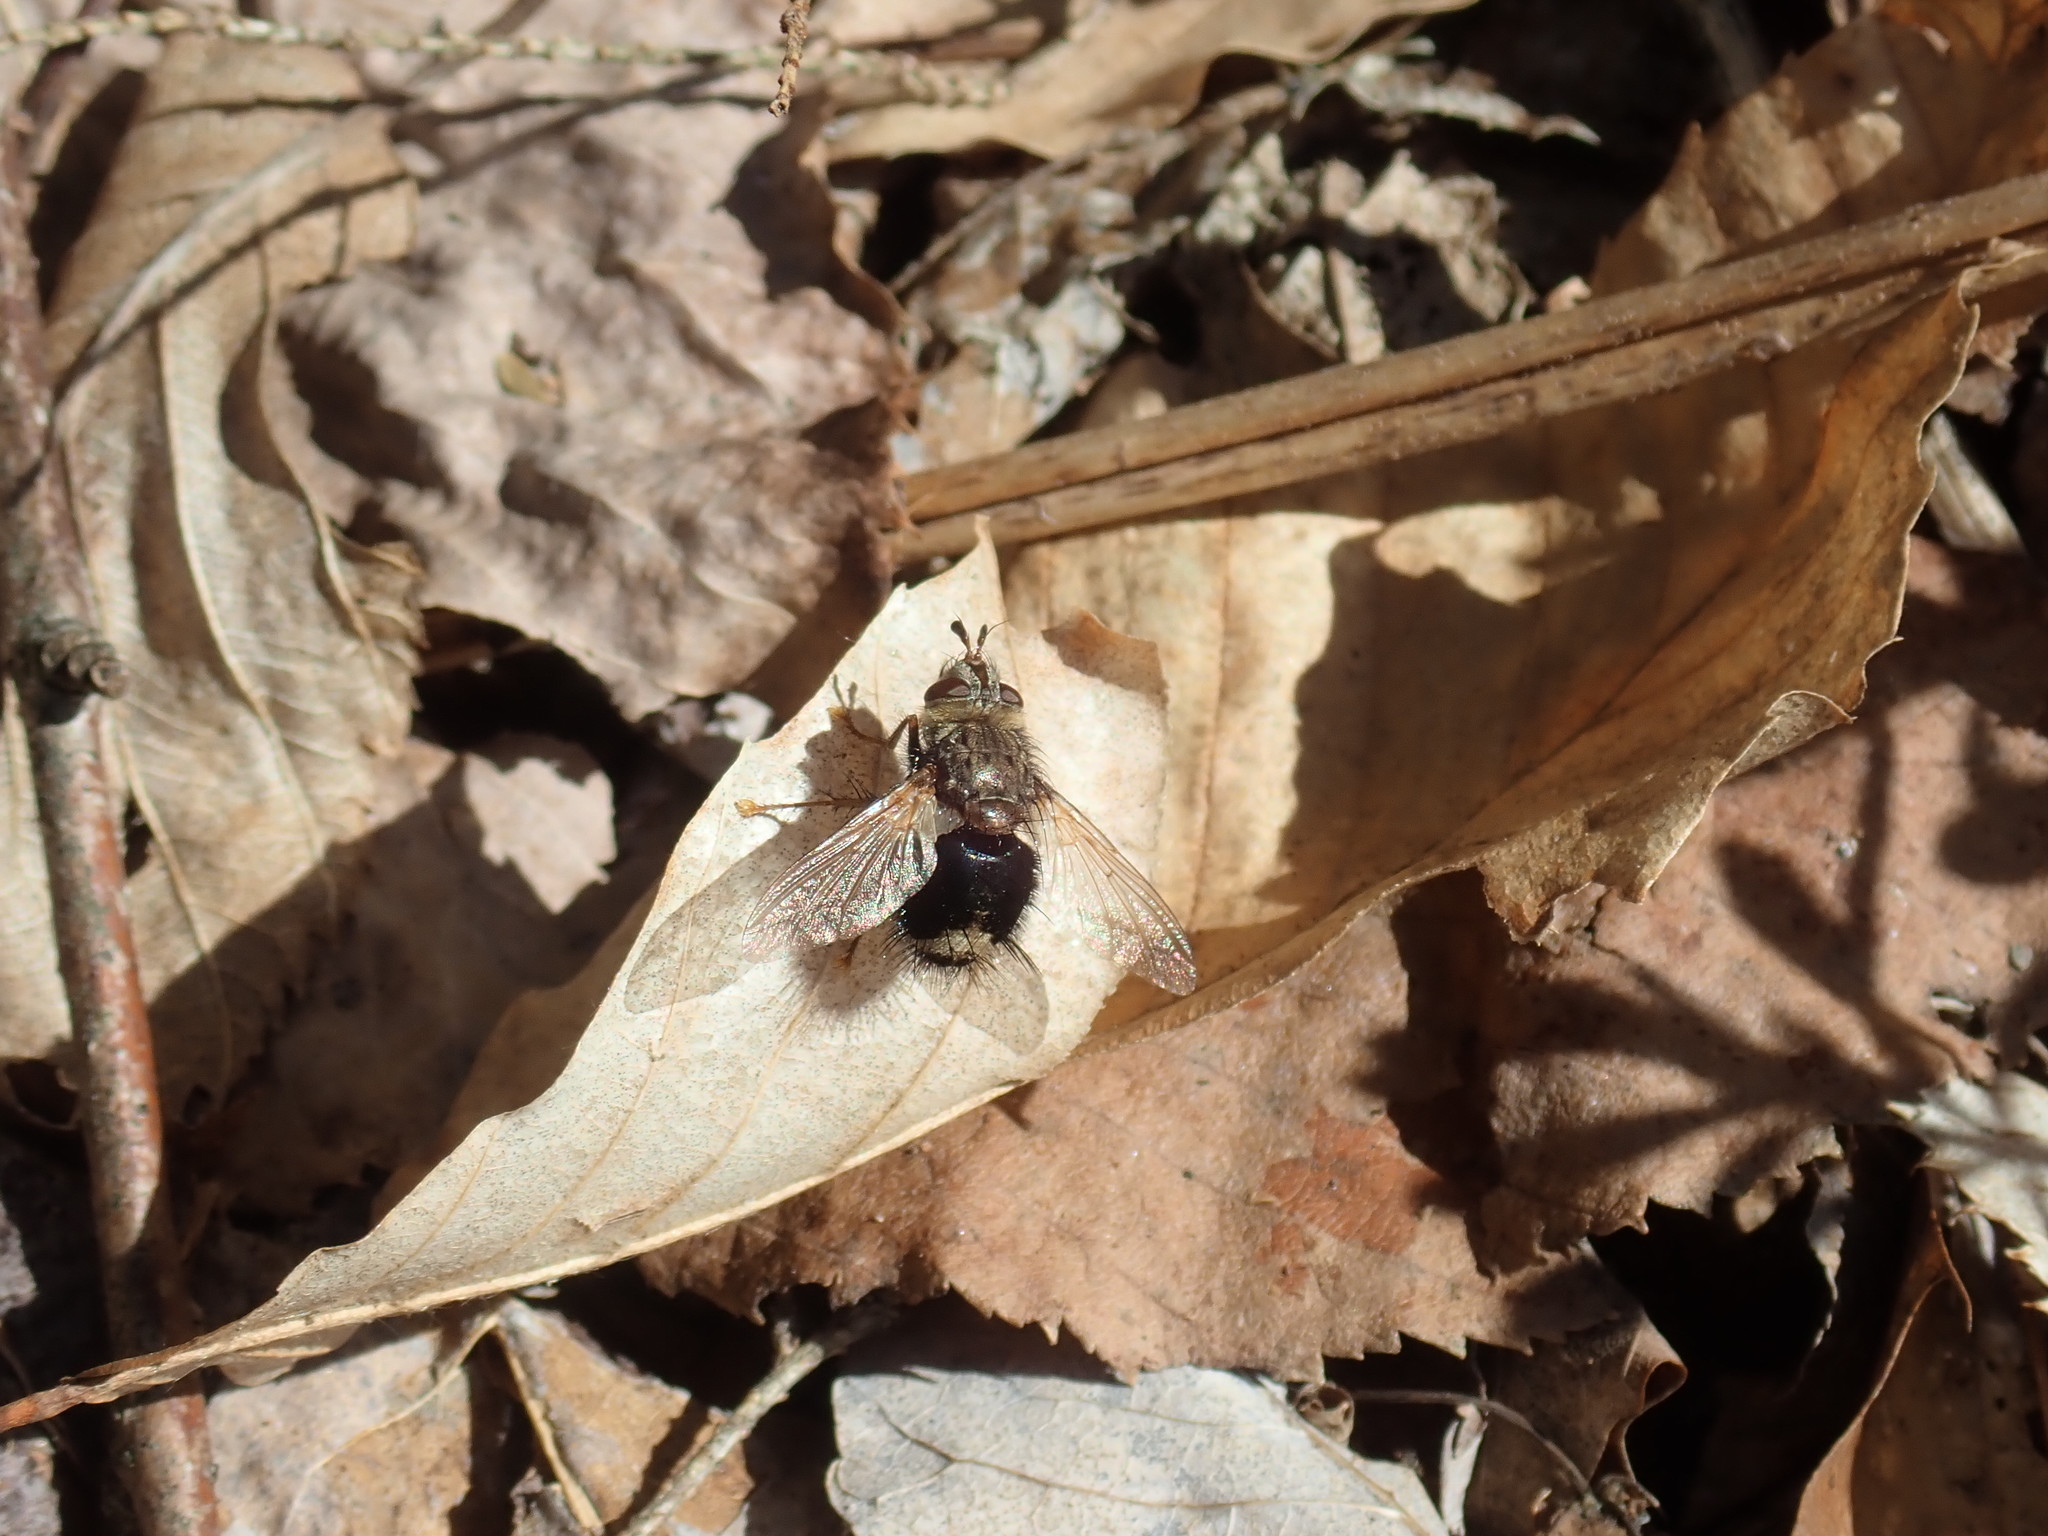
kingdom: Animalia
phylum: Arthropoda
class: Insecta
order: Diptera
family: Tachinidae
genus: Epalpus
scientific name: Epalpus signifer
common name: Early tachinid fly
